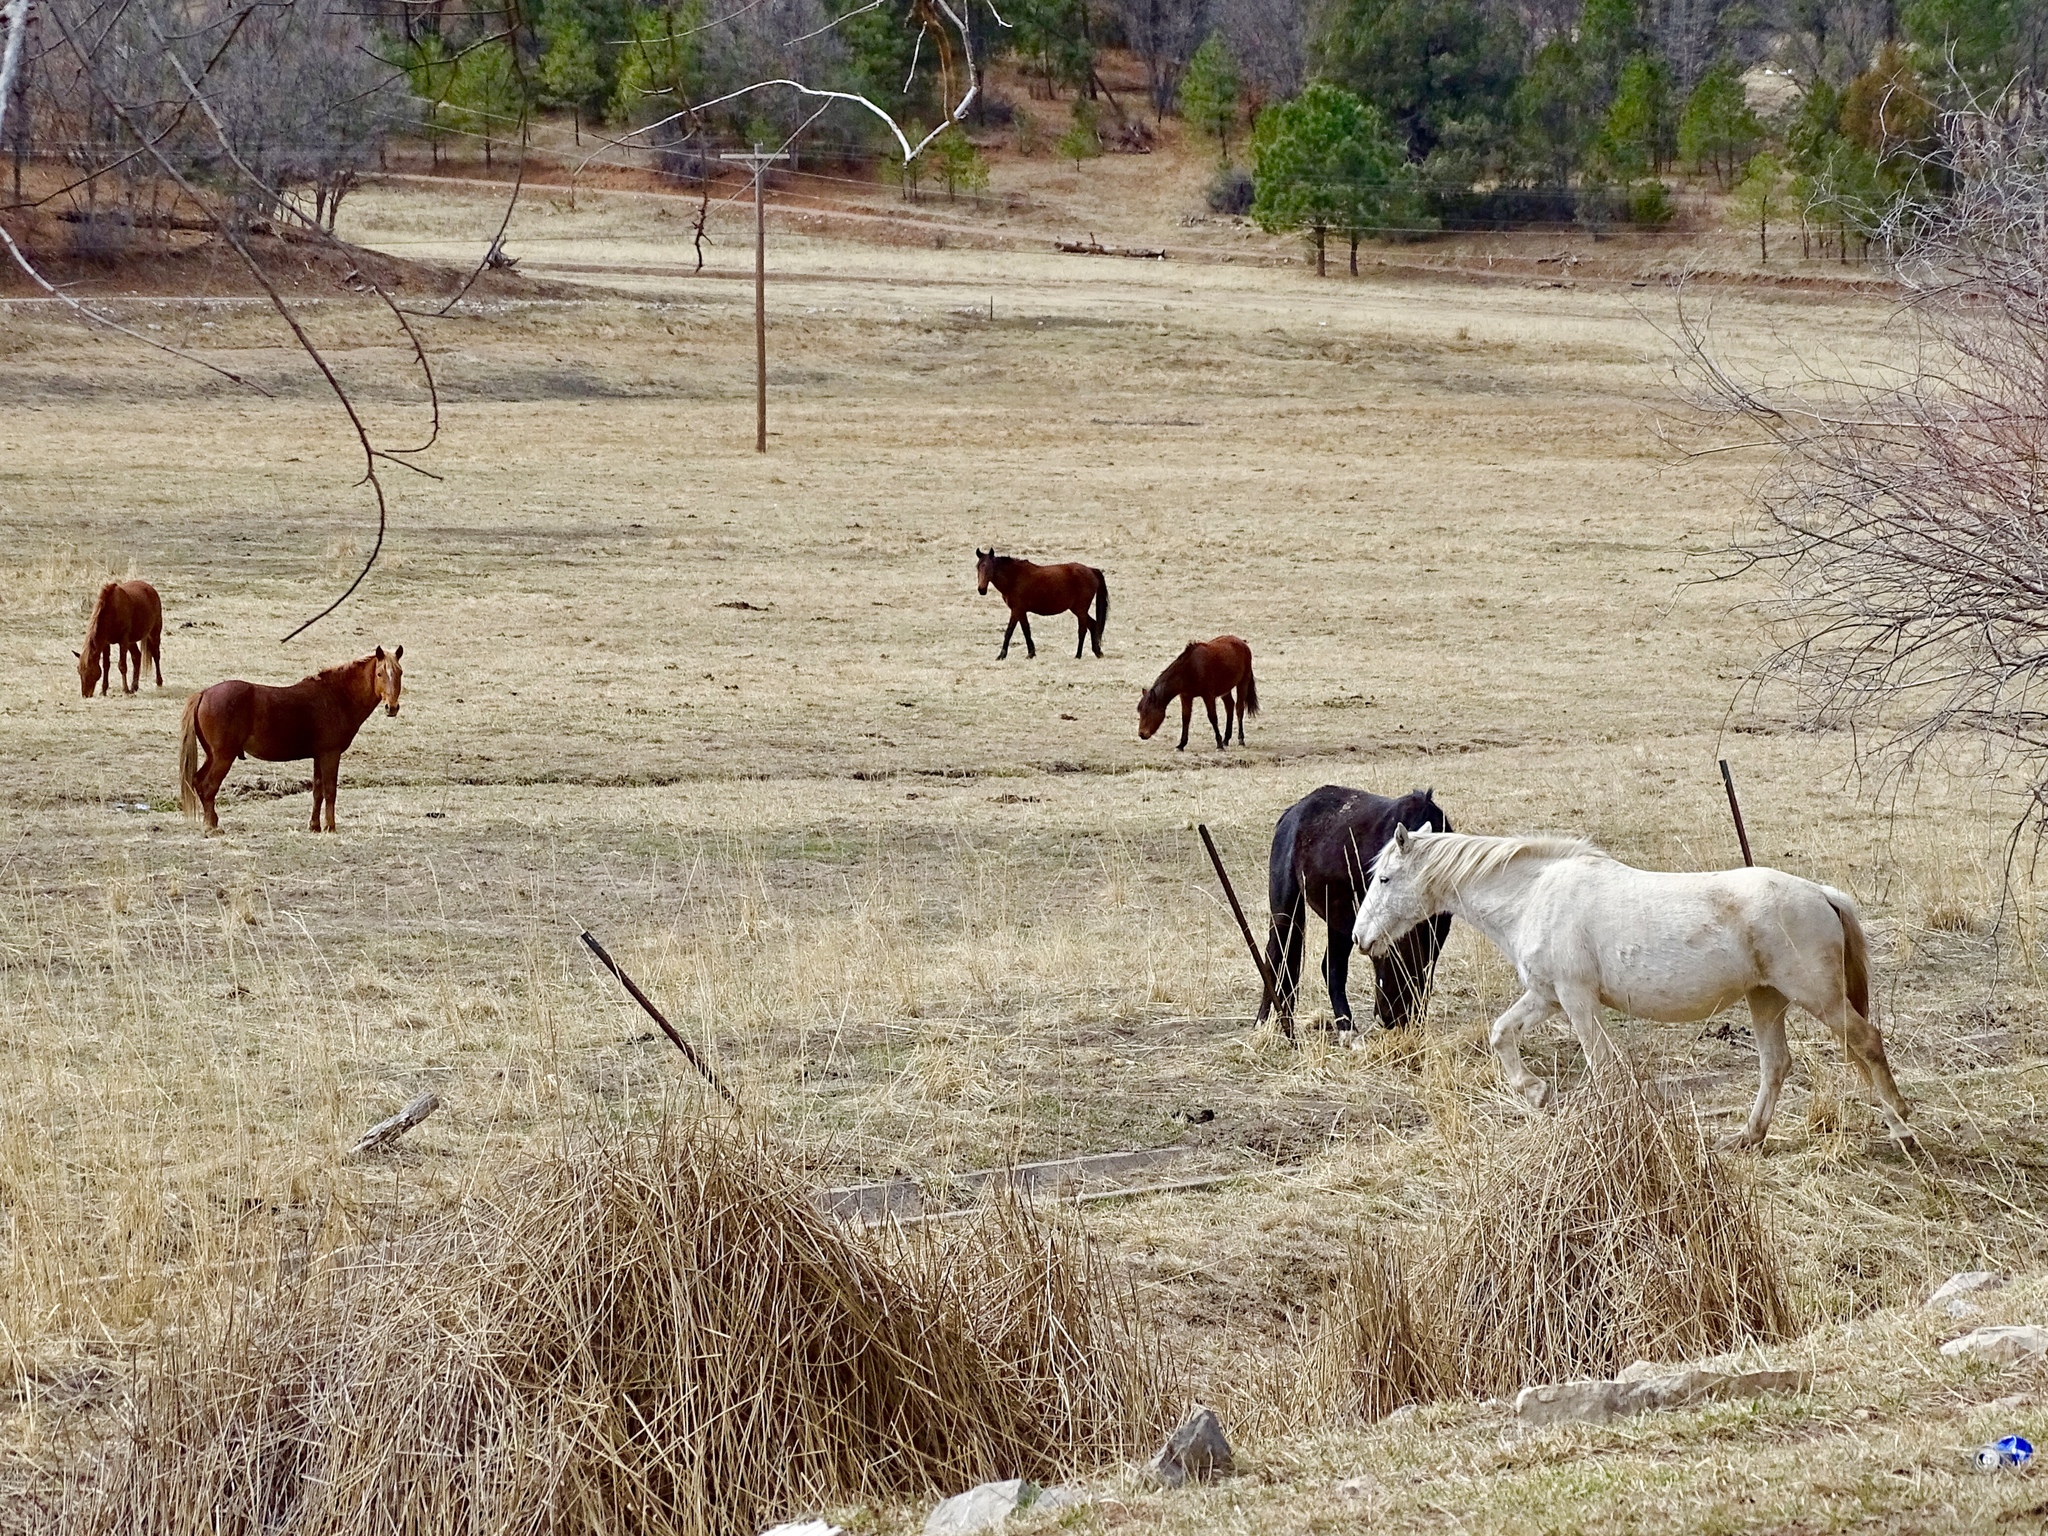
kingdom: Animalia
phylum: Chordata
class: Mammalia
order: Perissodactyla
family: Equidae
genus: Equus
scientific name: Equus caballus
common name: Horse
